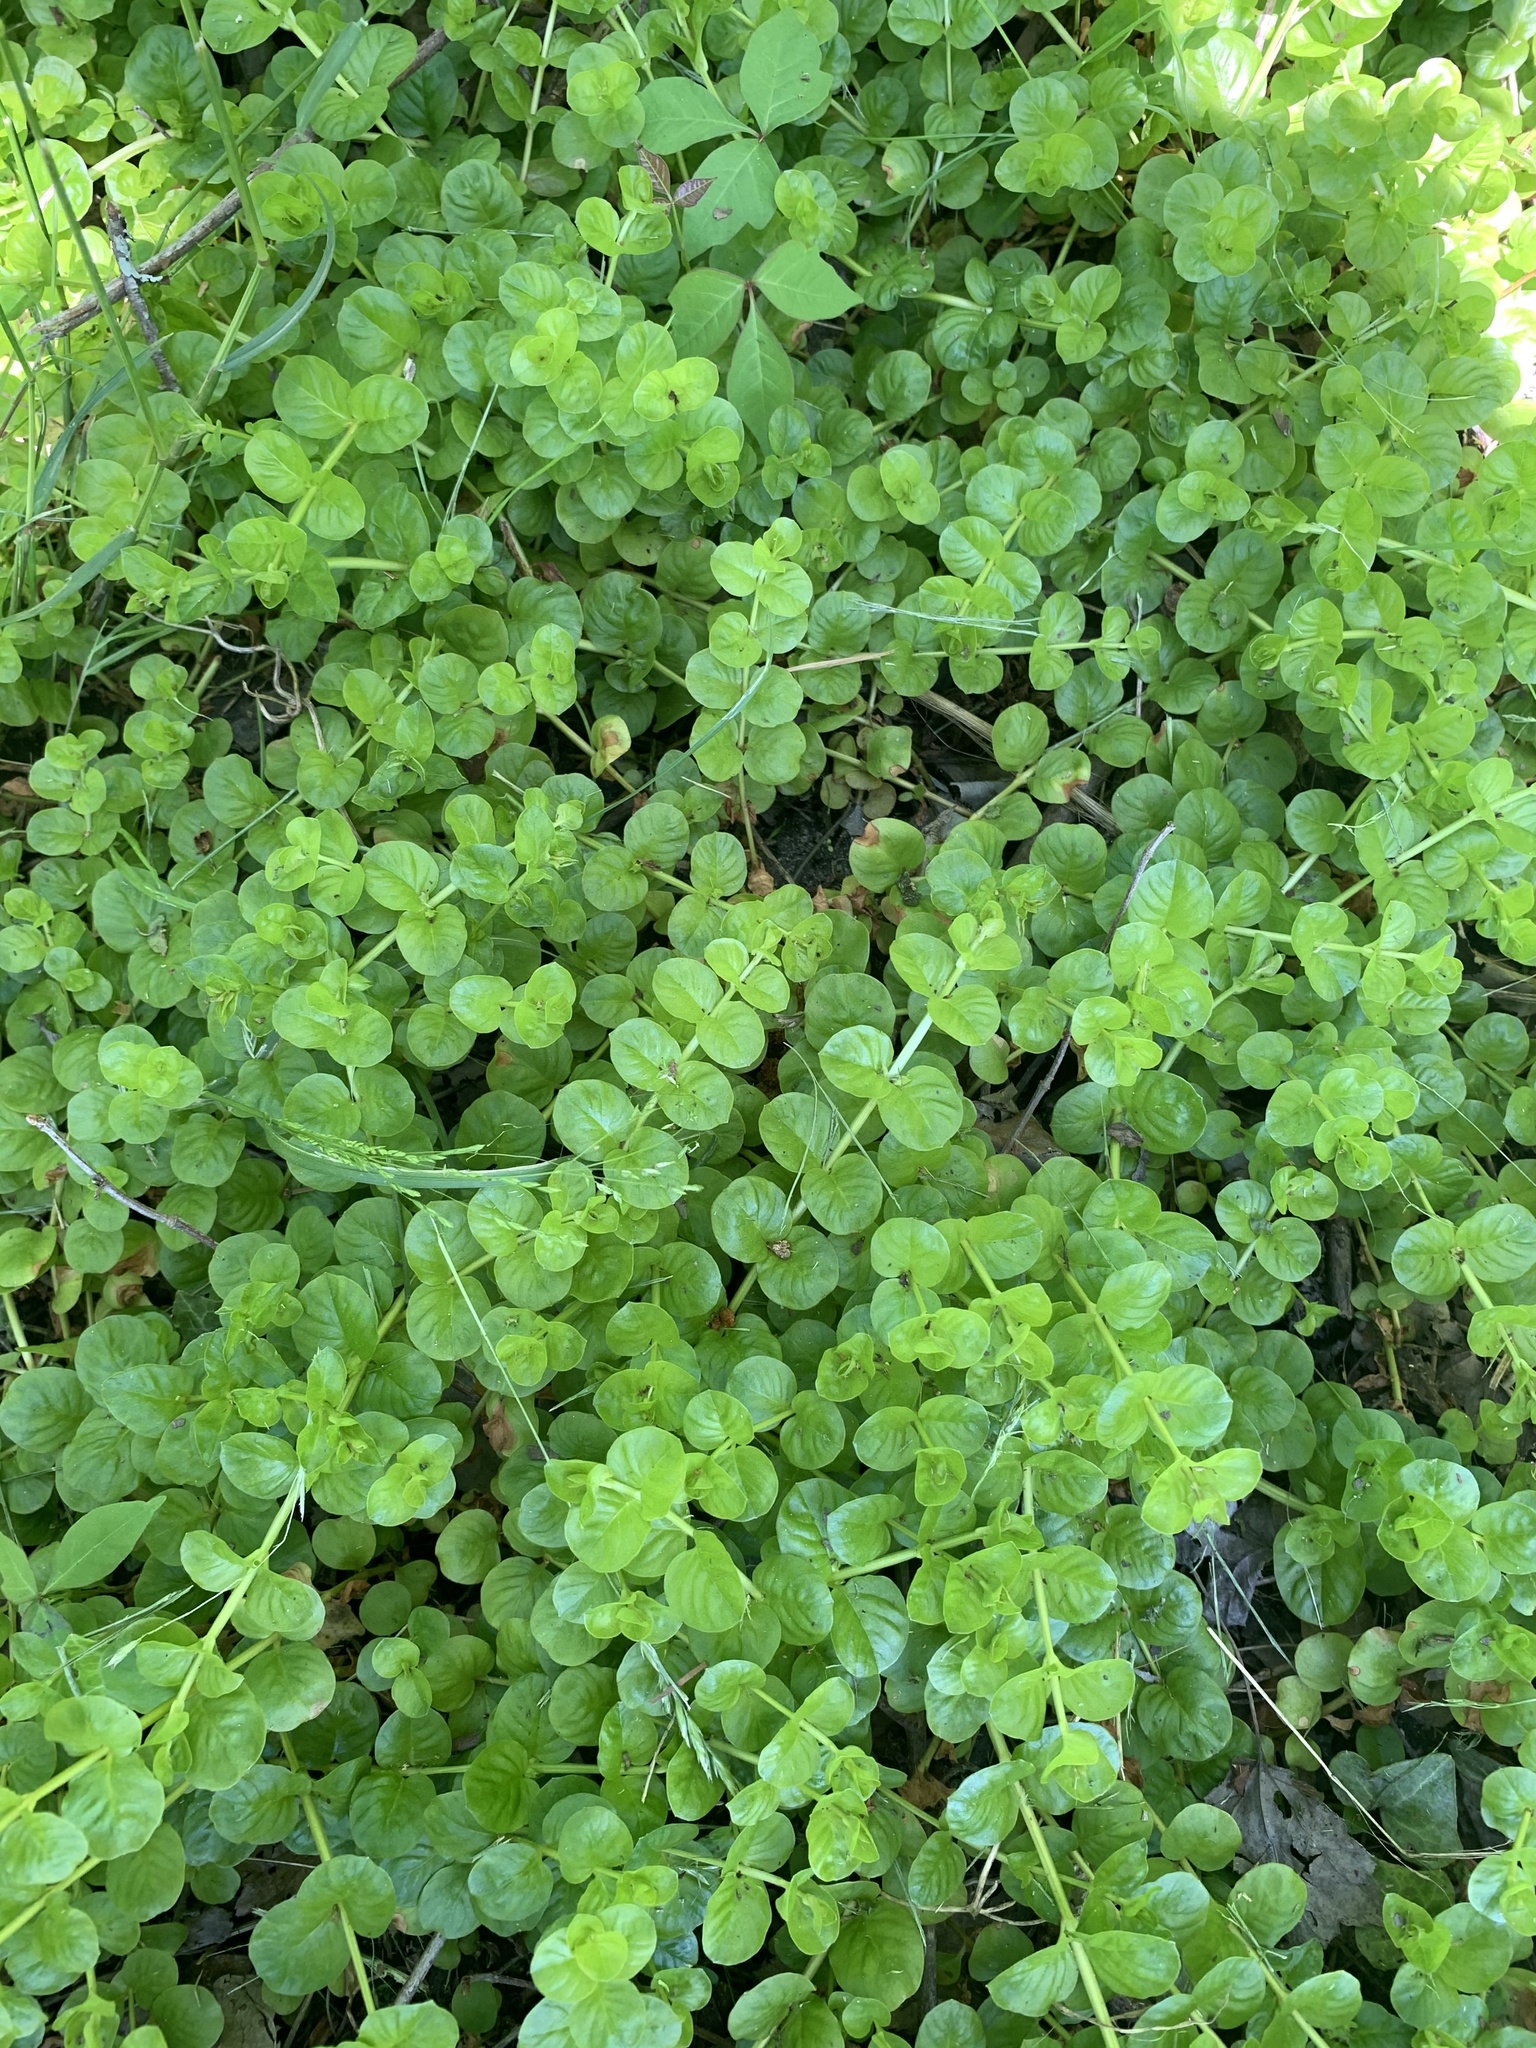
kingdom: Plantae
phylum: Tracheophyta
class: Magnoliopsida
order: Ericales
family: Primulaceae
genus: Lysimachia
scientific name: Lysimachia nummularia
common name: Moneywort
